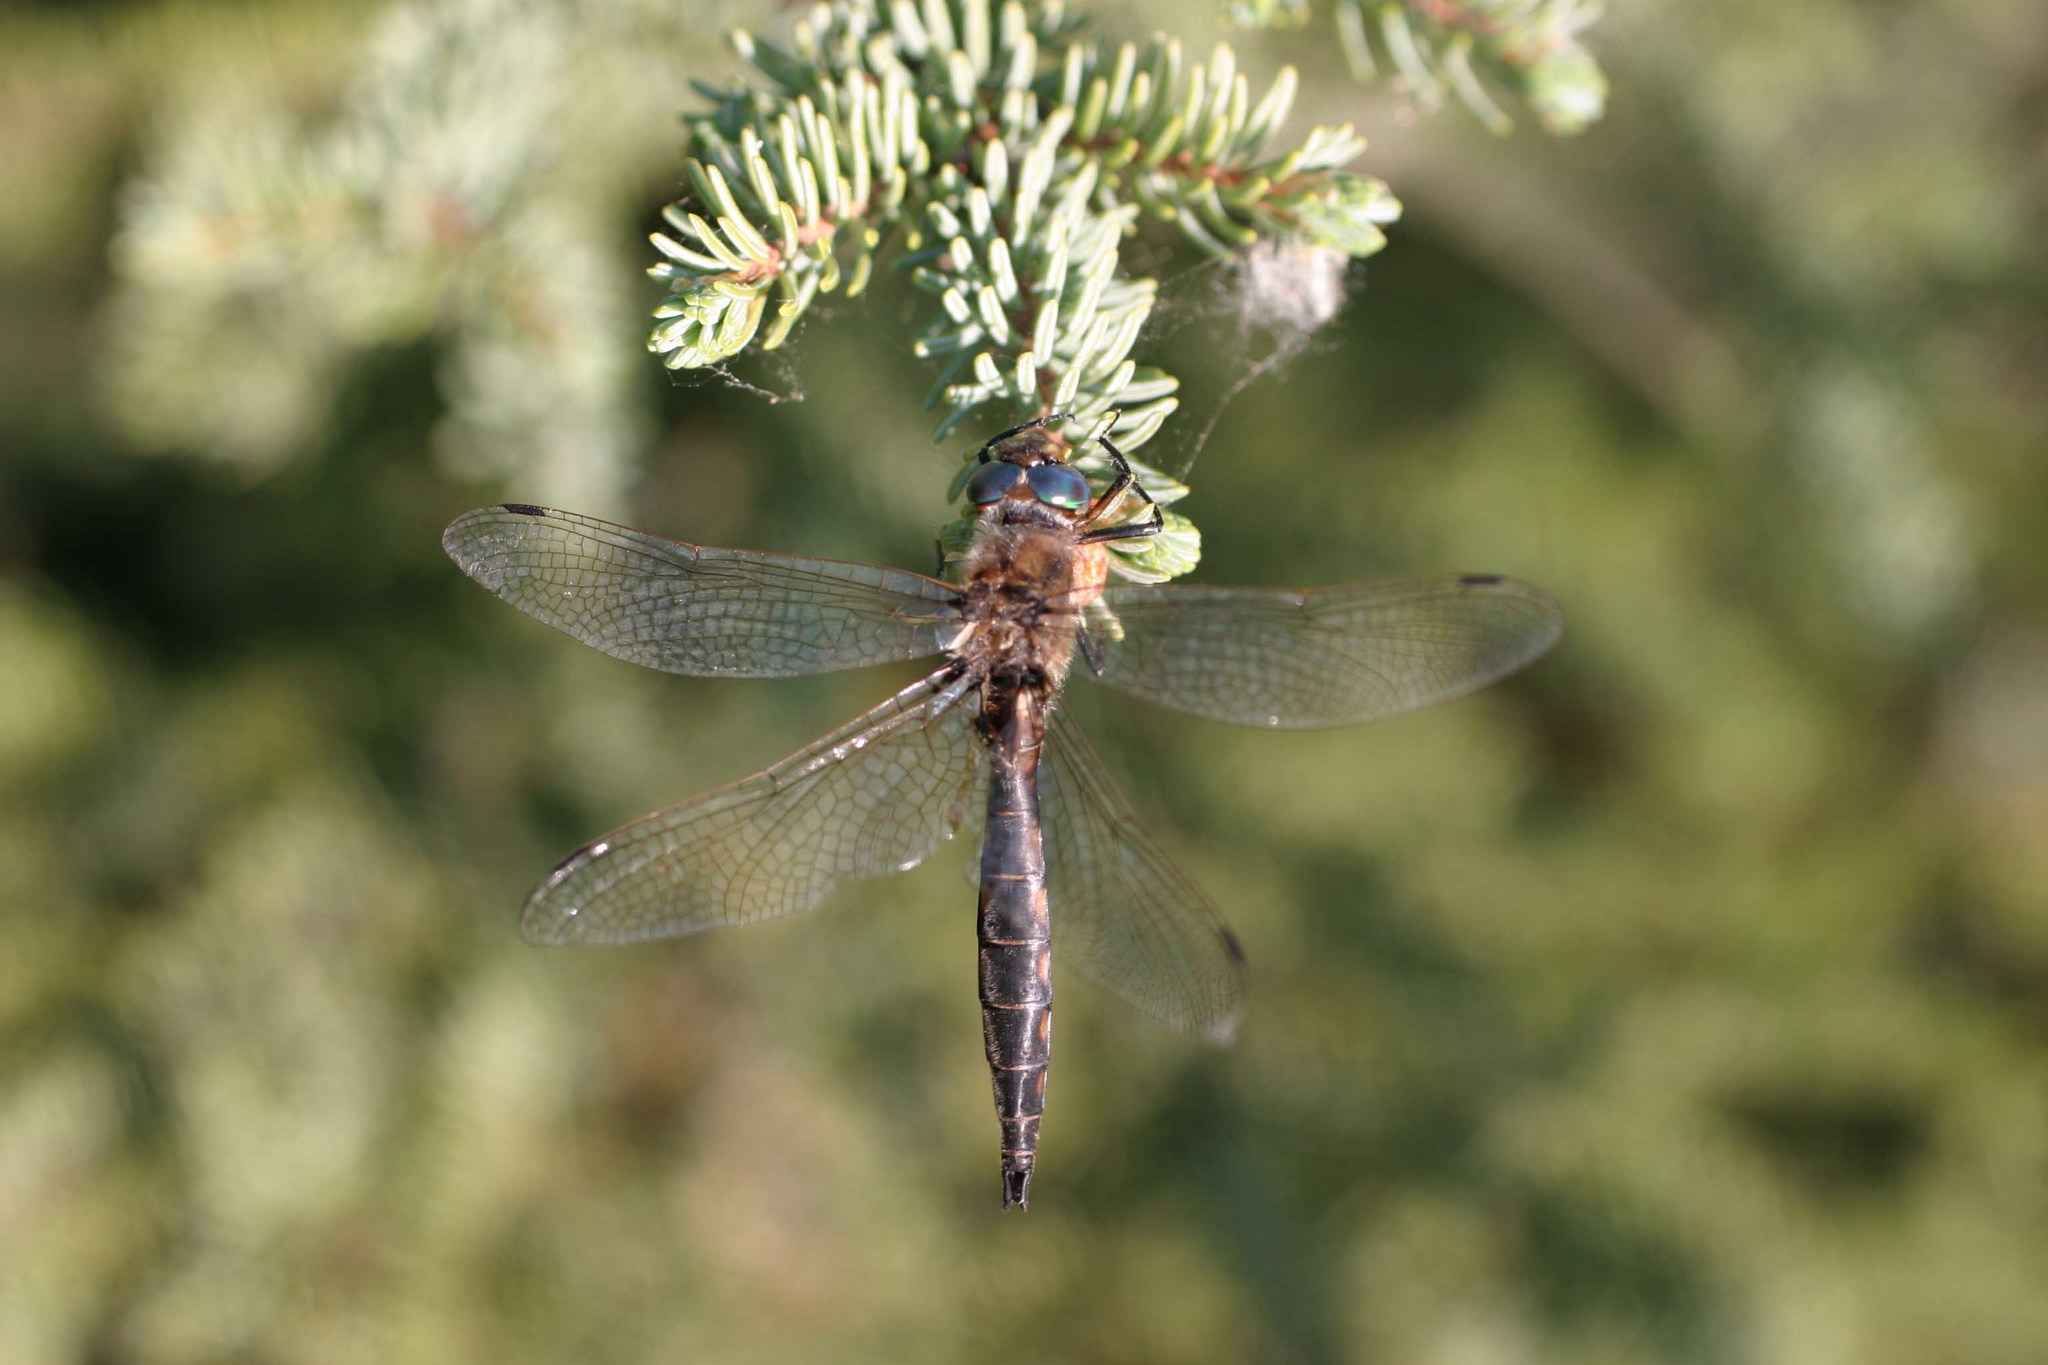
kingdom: Animalia
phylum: Arthropoda
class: Insecta
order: Odonata
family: Corduliidae
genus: Epitheca
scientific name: Epitheca canis
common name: Beaverpond baskettail
